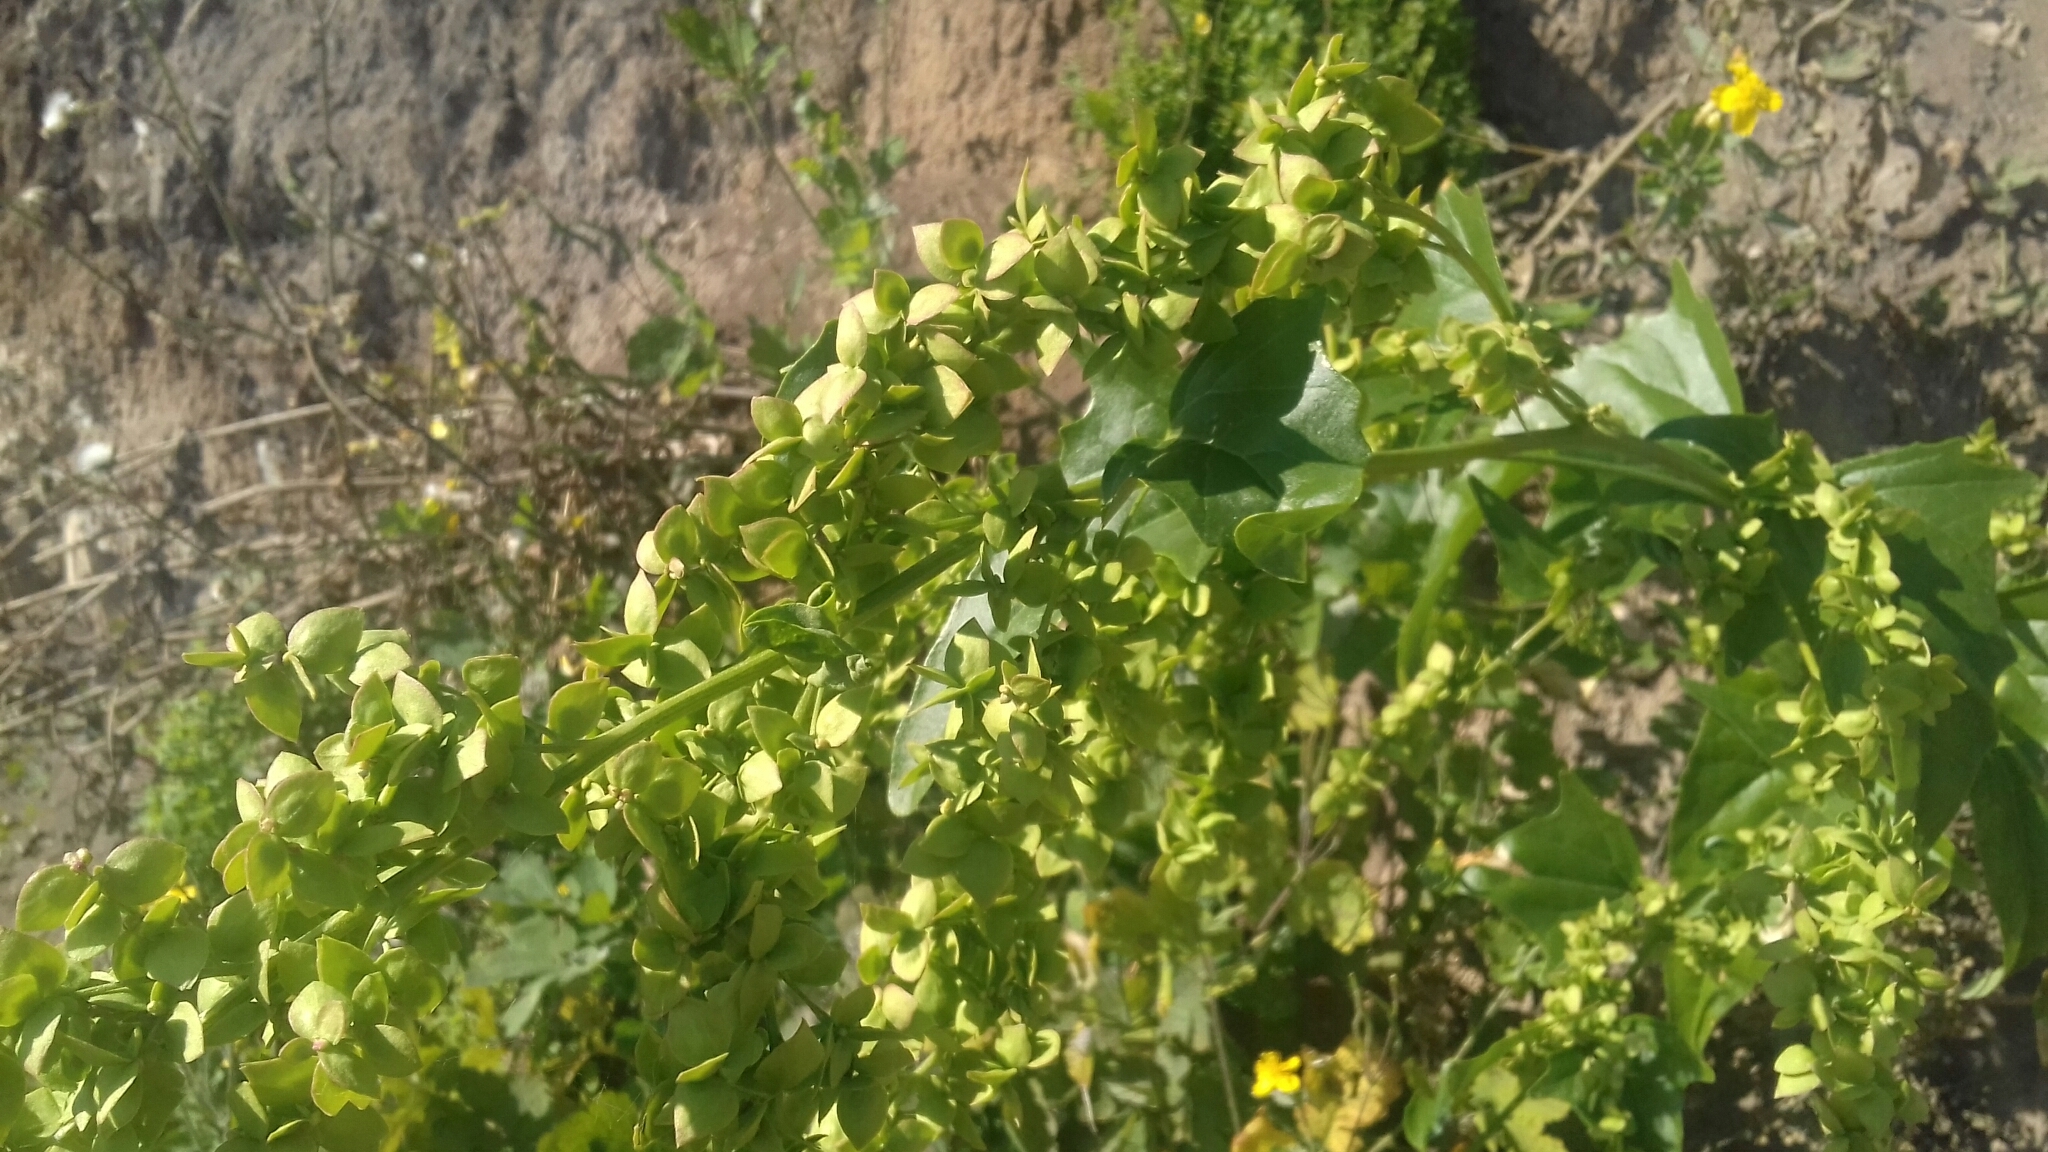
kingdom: Plantae
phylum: Tracheophyta
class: Magnoliopsida
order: Caryophyllales
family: Amaranthaceae
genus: Atriplex
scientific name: Atriplex sagittata
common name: Purple orache
